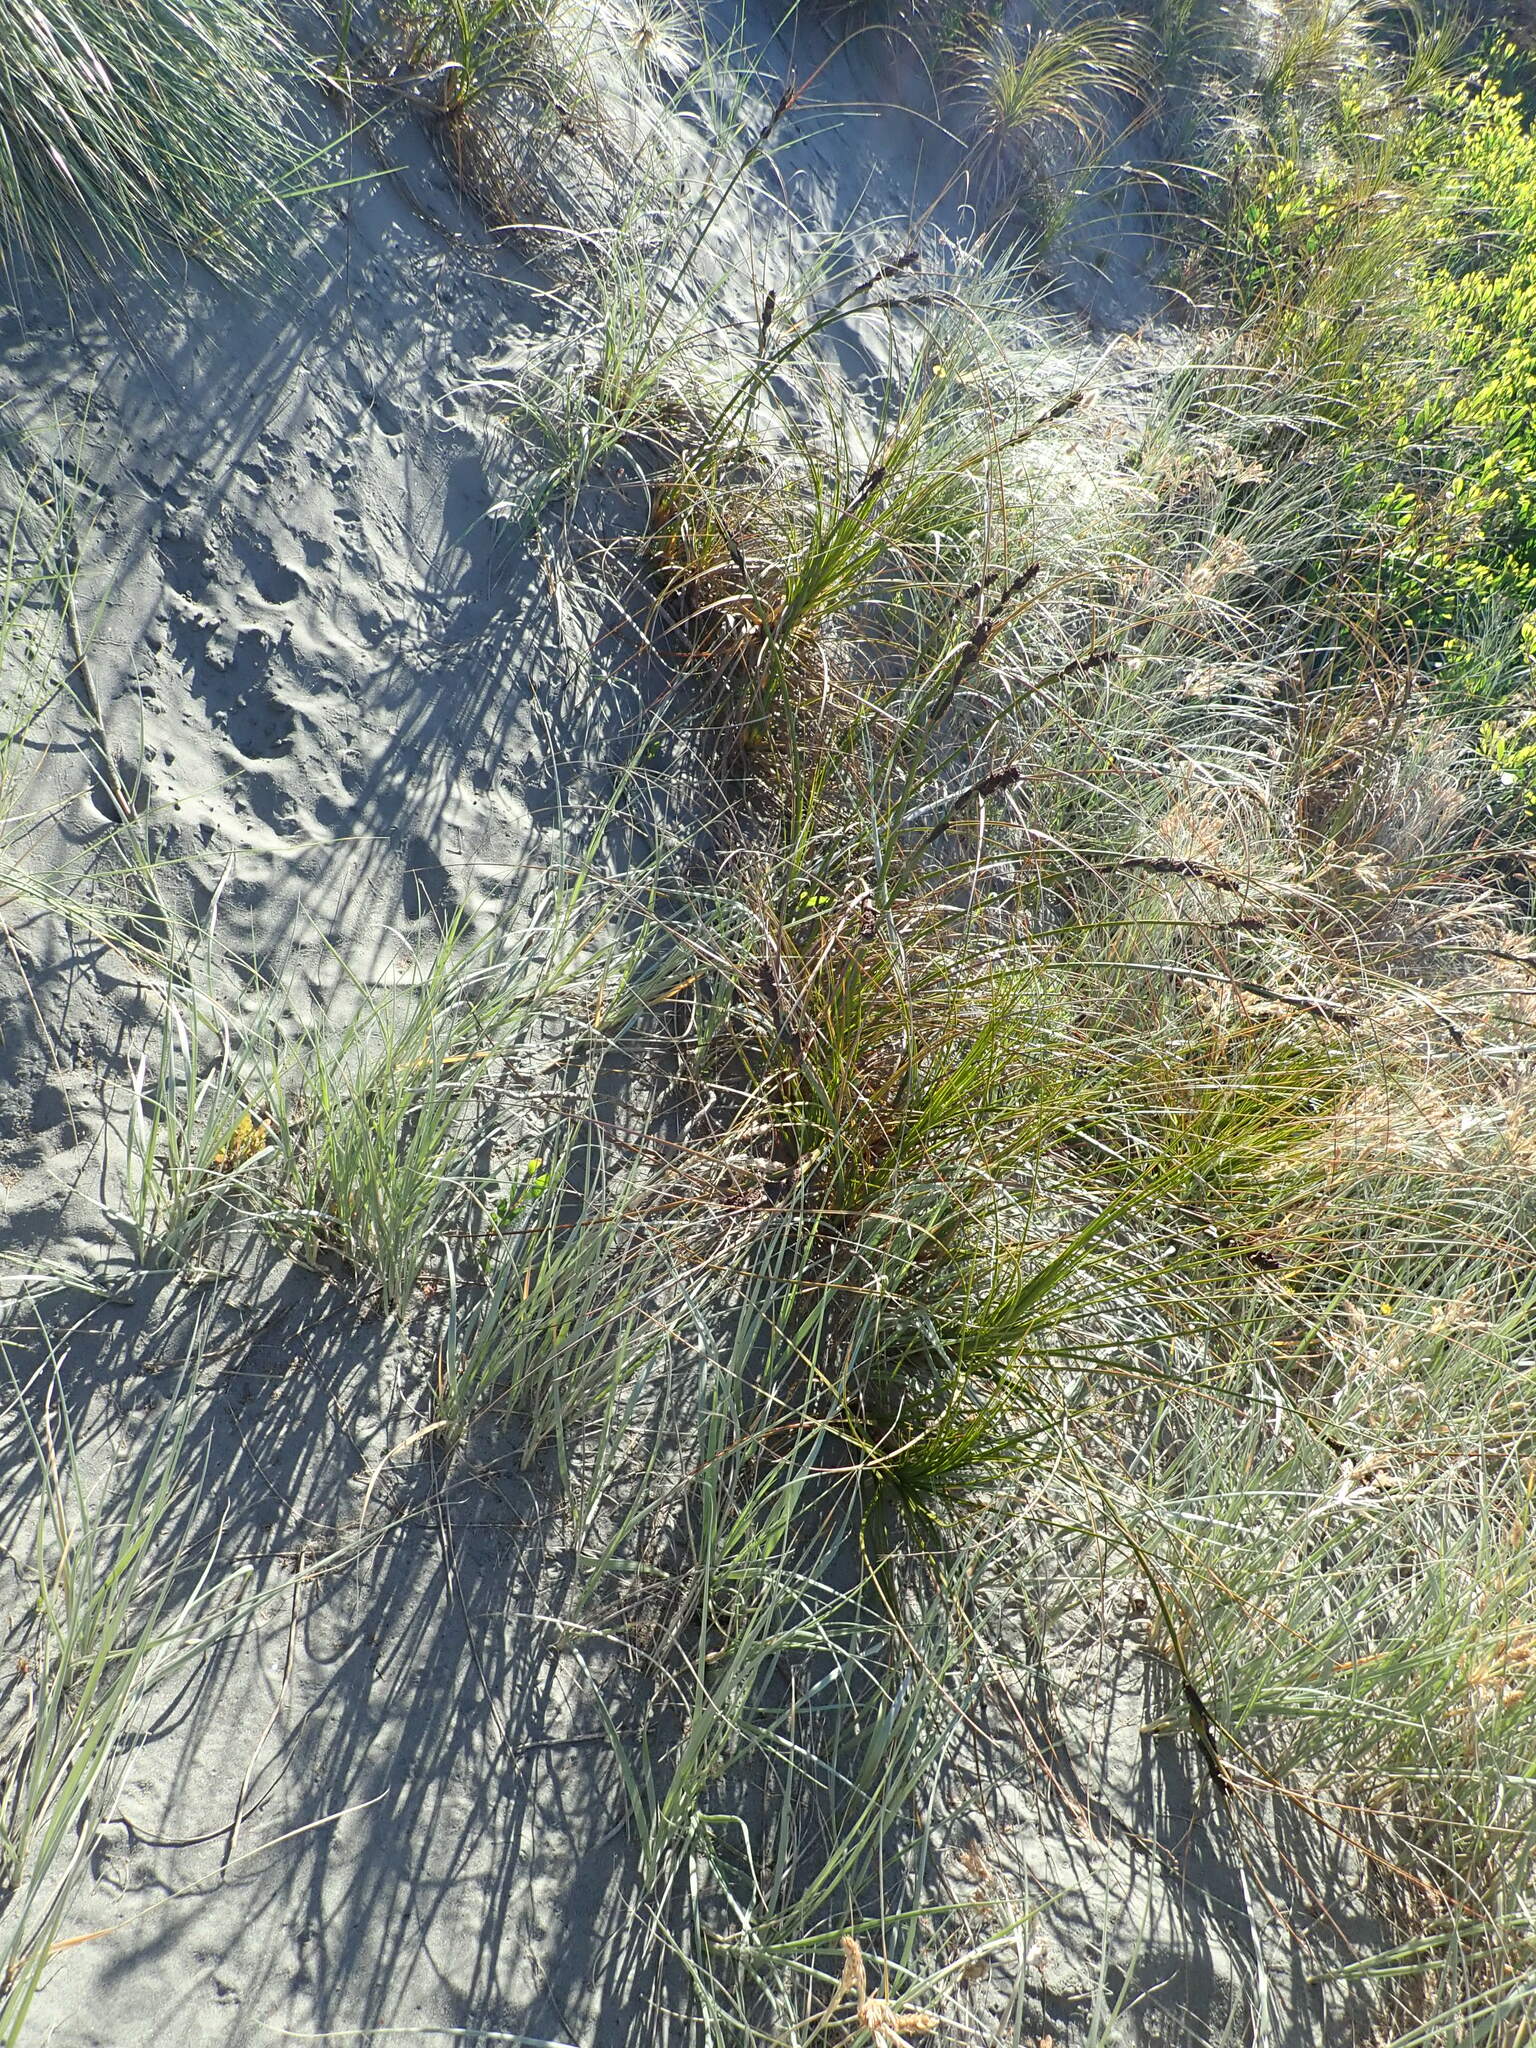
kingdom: Plantae
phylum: Tracheophyta
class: Liliopsida
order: Poales
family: Cyperaceae
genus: Ficinia
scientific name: Ficinia spiralis
